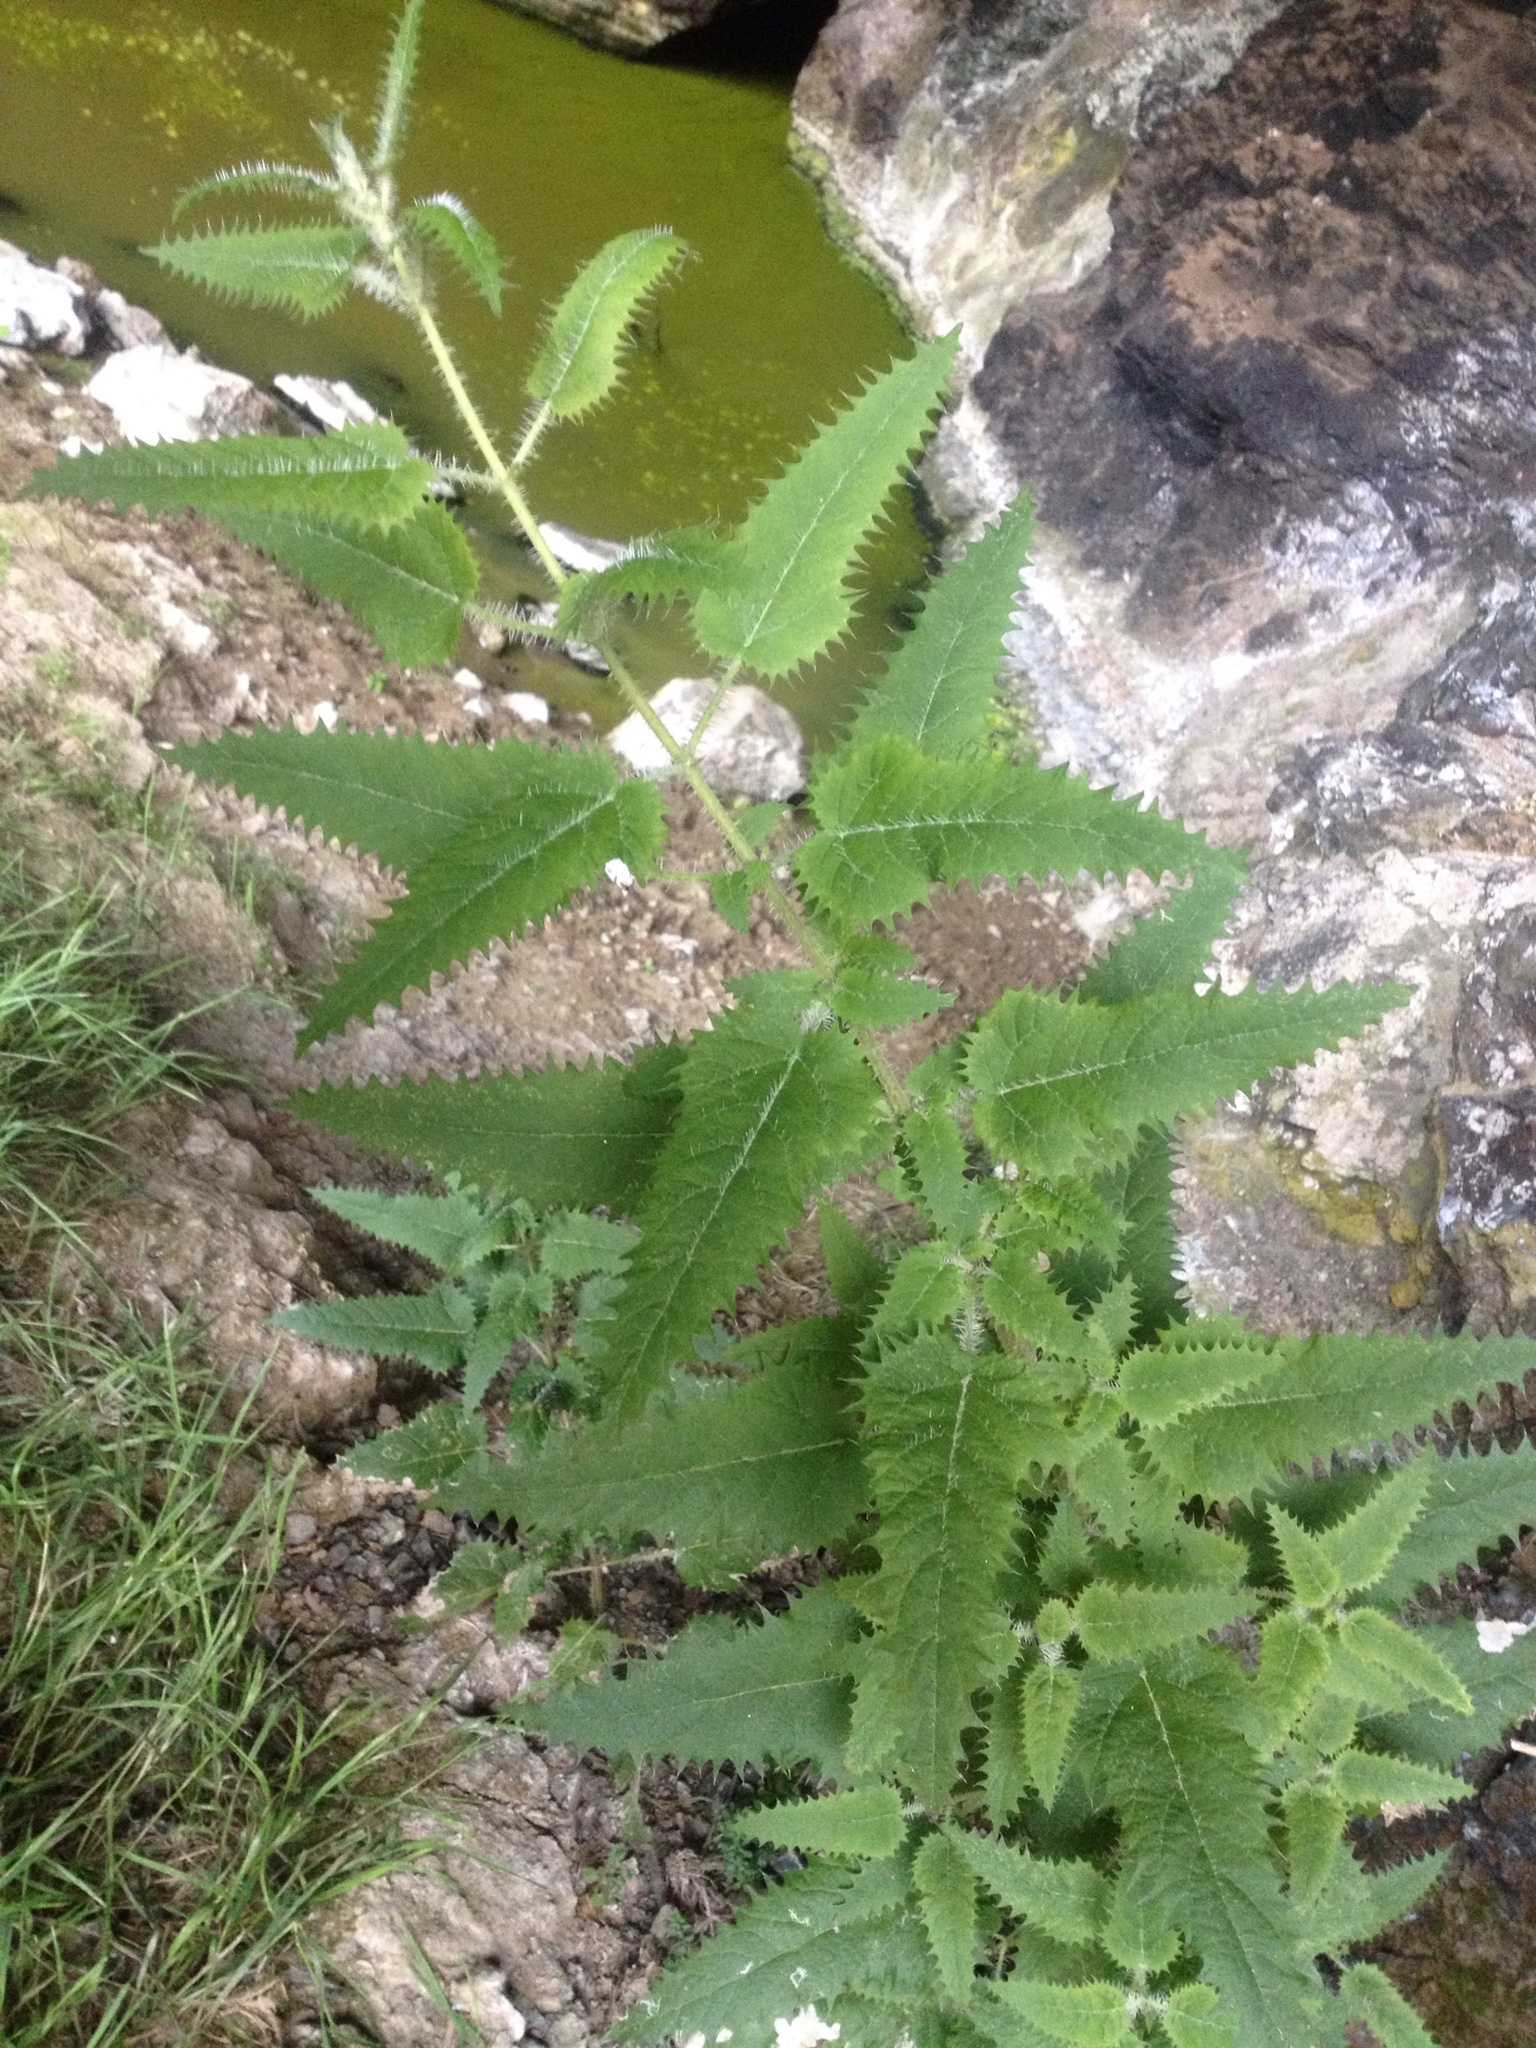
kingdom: Plantae
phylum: Tracheophyta
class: Magnoliopsida
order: Rosales
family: Urticaceae
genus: Urtica
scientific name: Urtica ferox
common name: Tree nettle
